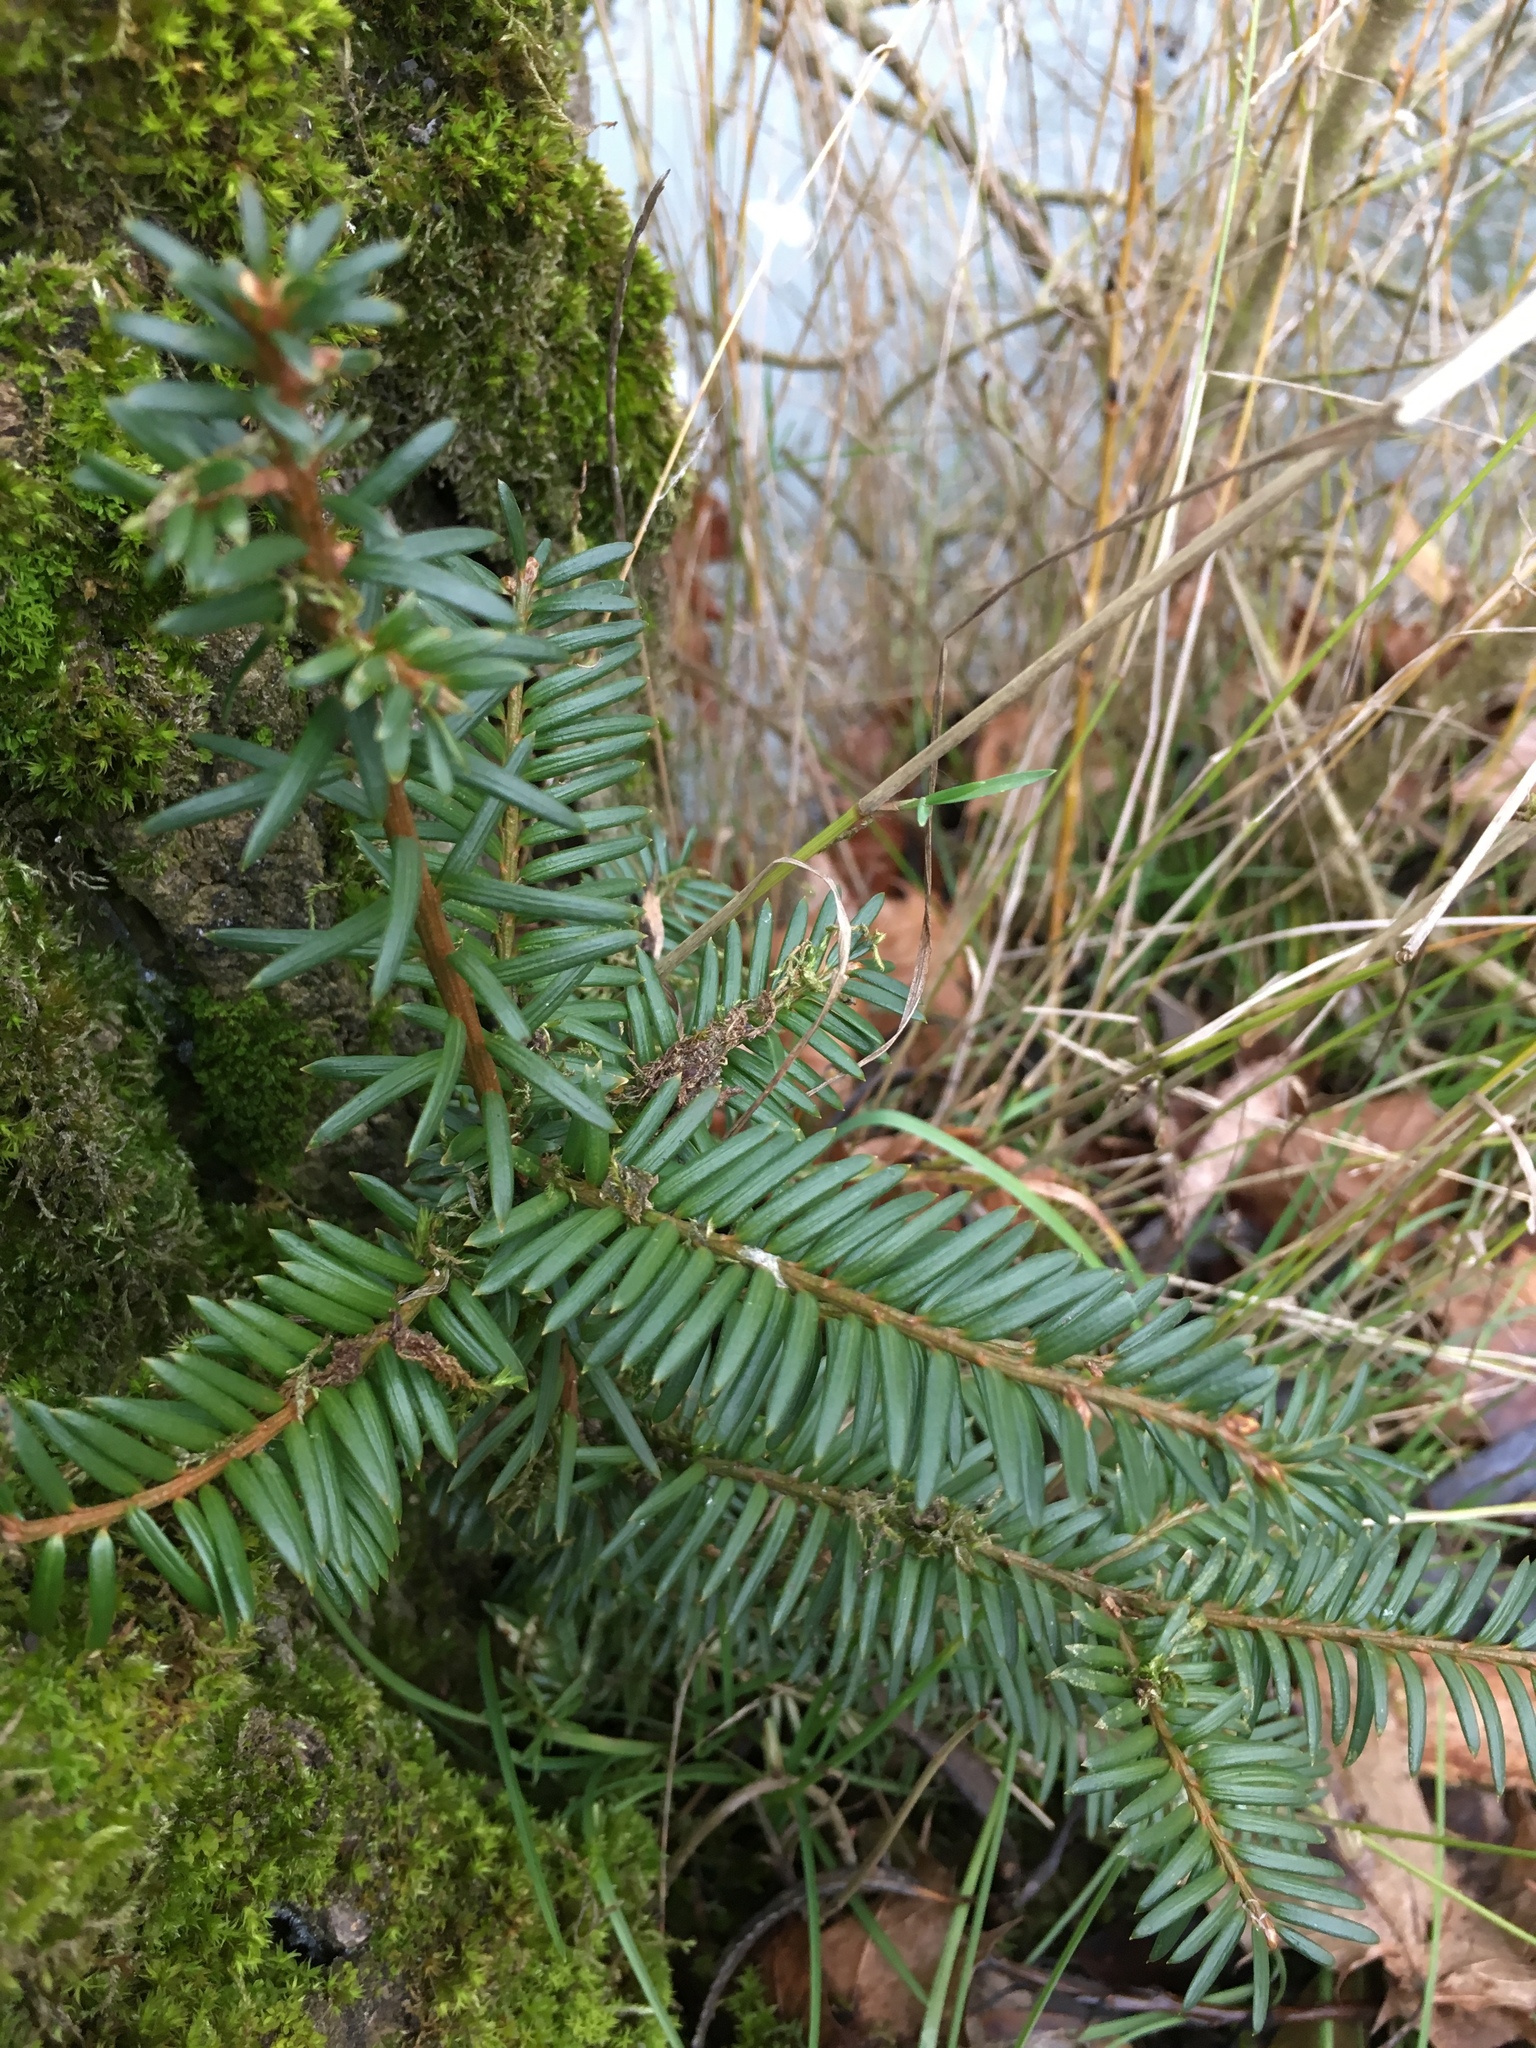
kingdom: Plantae
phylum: Tracheophyta
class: Pinopsida
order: Pinales
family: Taxaceae
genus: Taxus
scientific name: Taxus baccata
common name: Yew
